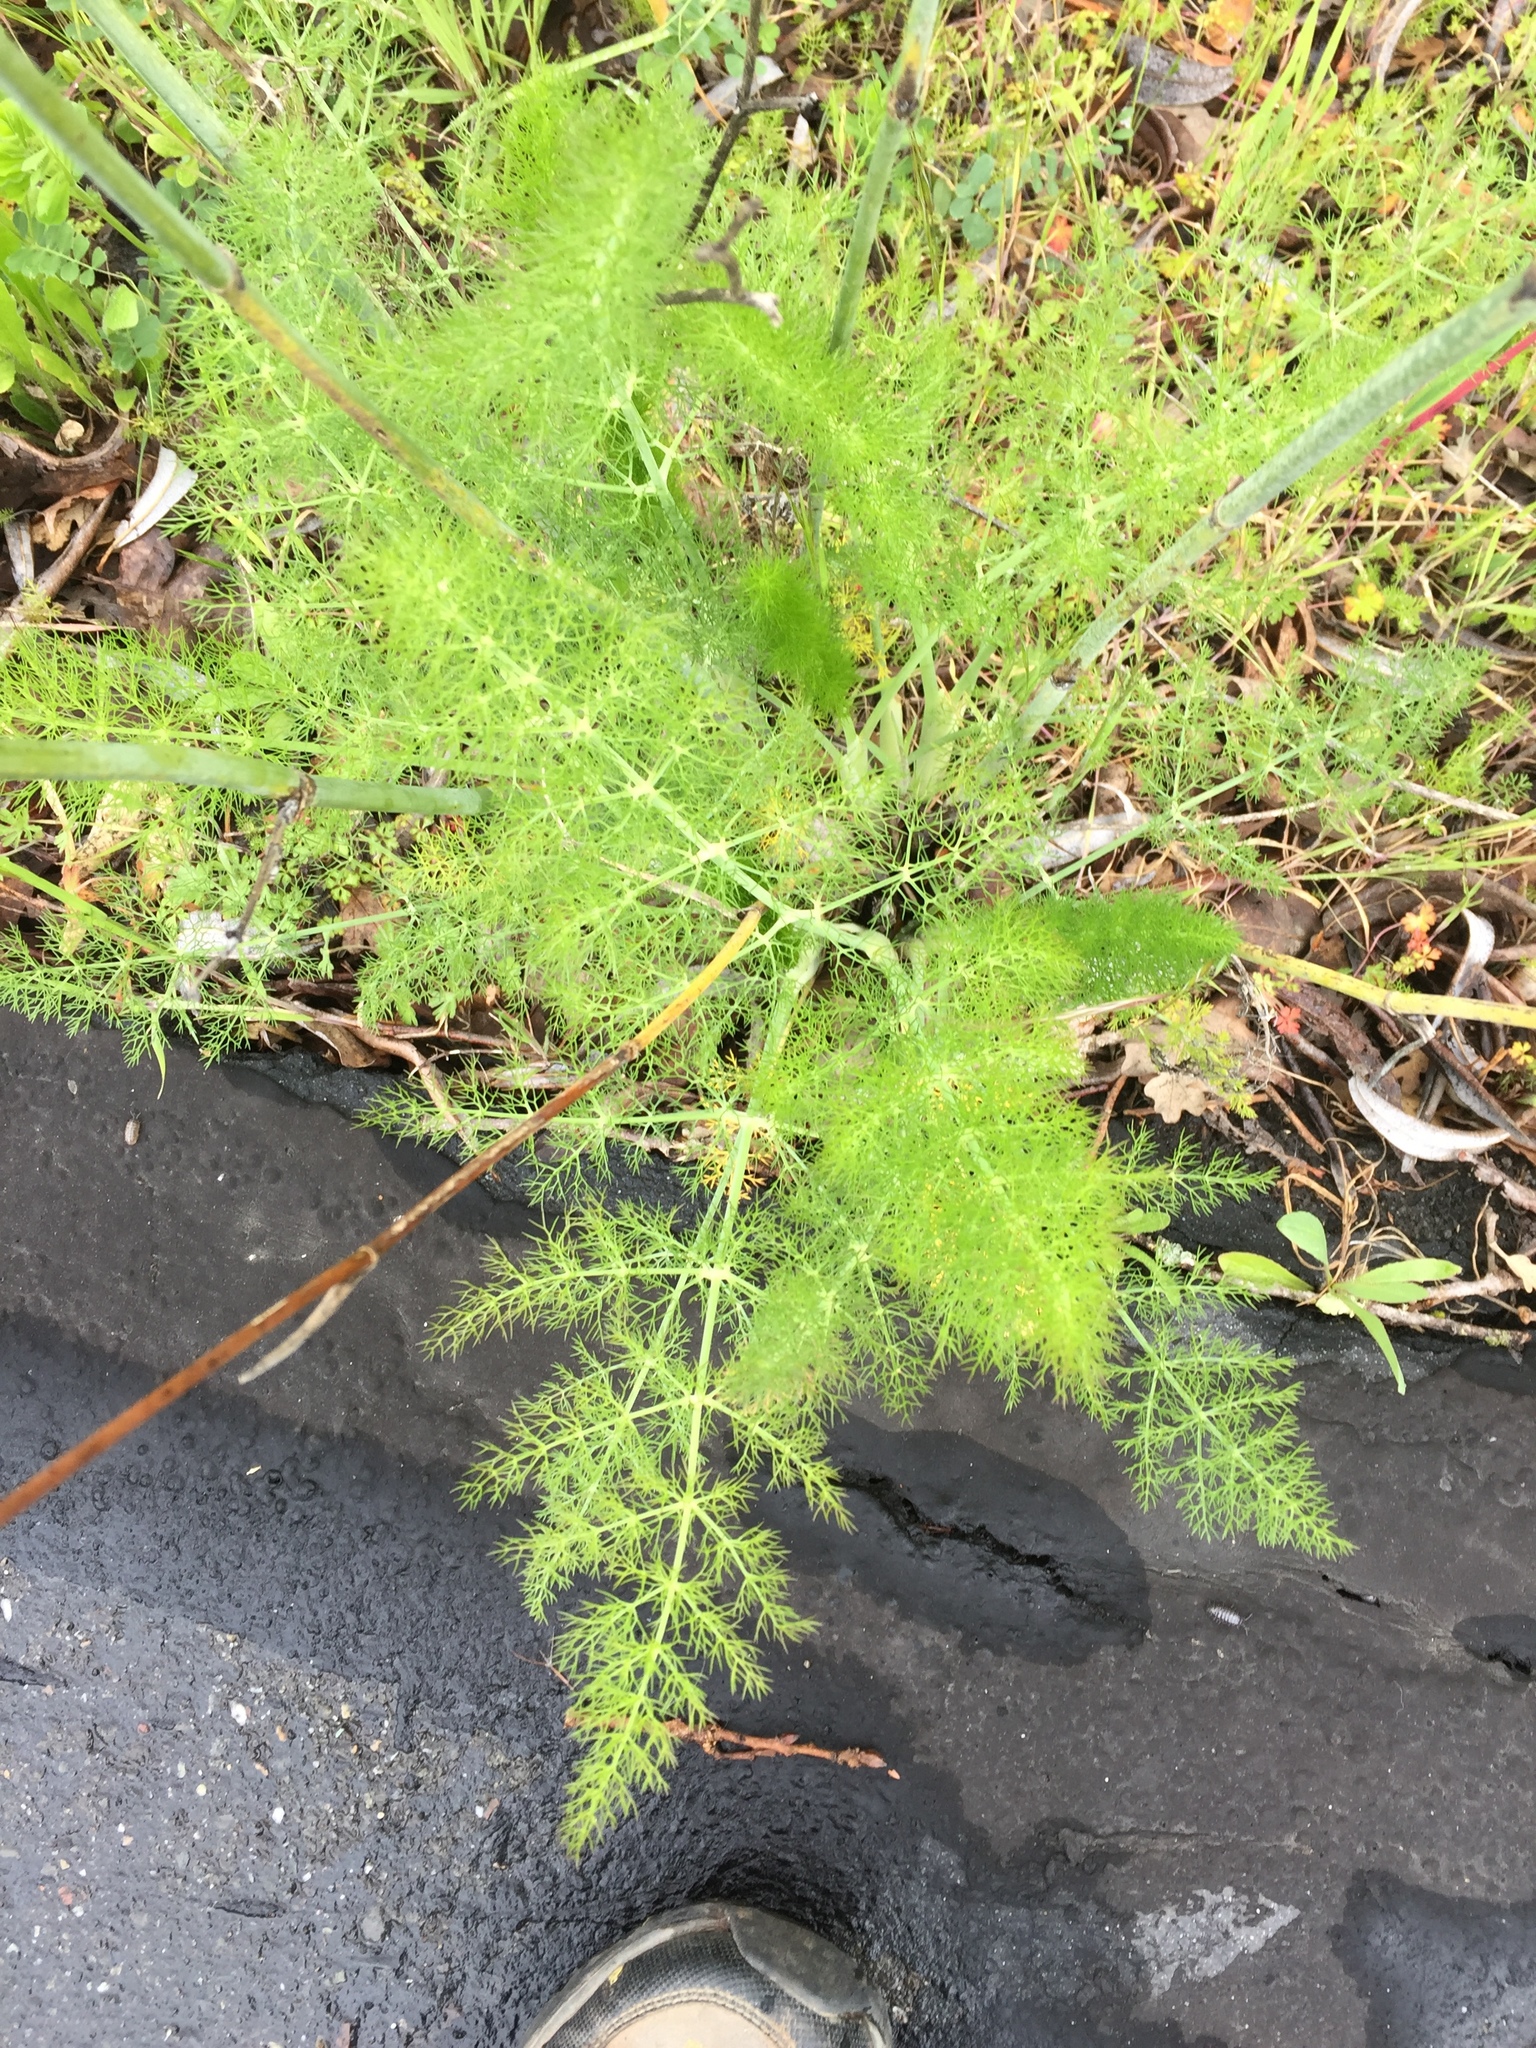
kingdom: Plantae
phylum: Tracheophyta
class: Magnoliopsida
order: Apiales
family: Apiaceae
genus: Foeniculum
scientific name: Foeniculum vulgare
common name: Fennel
